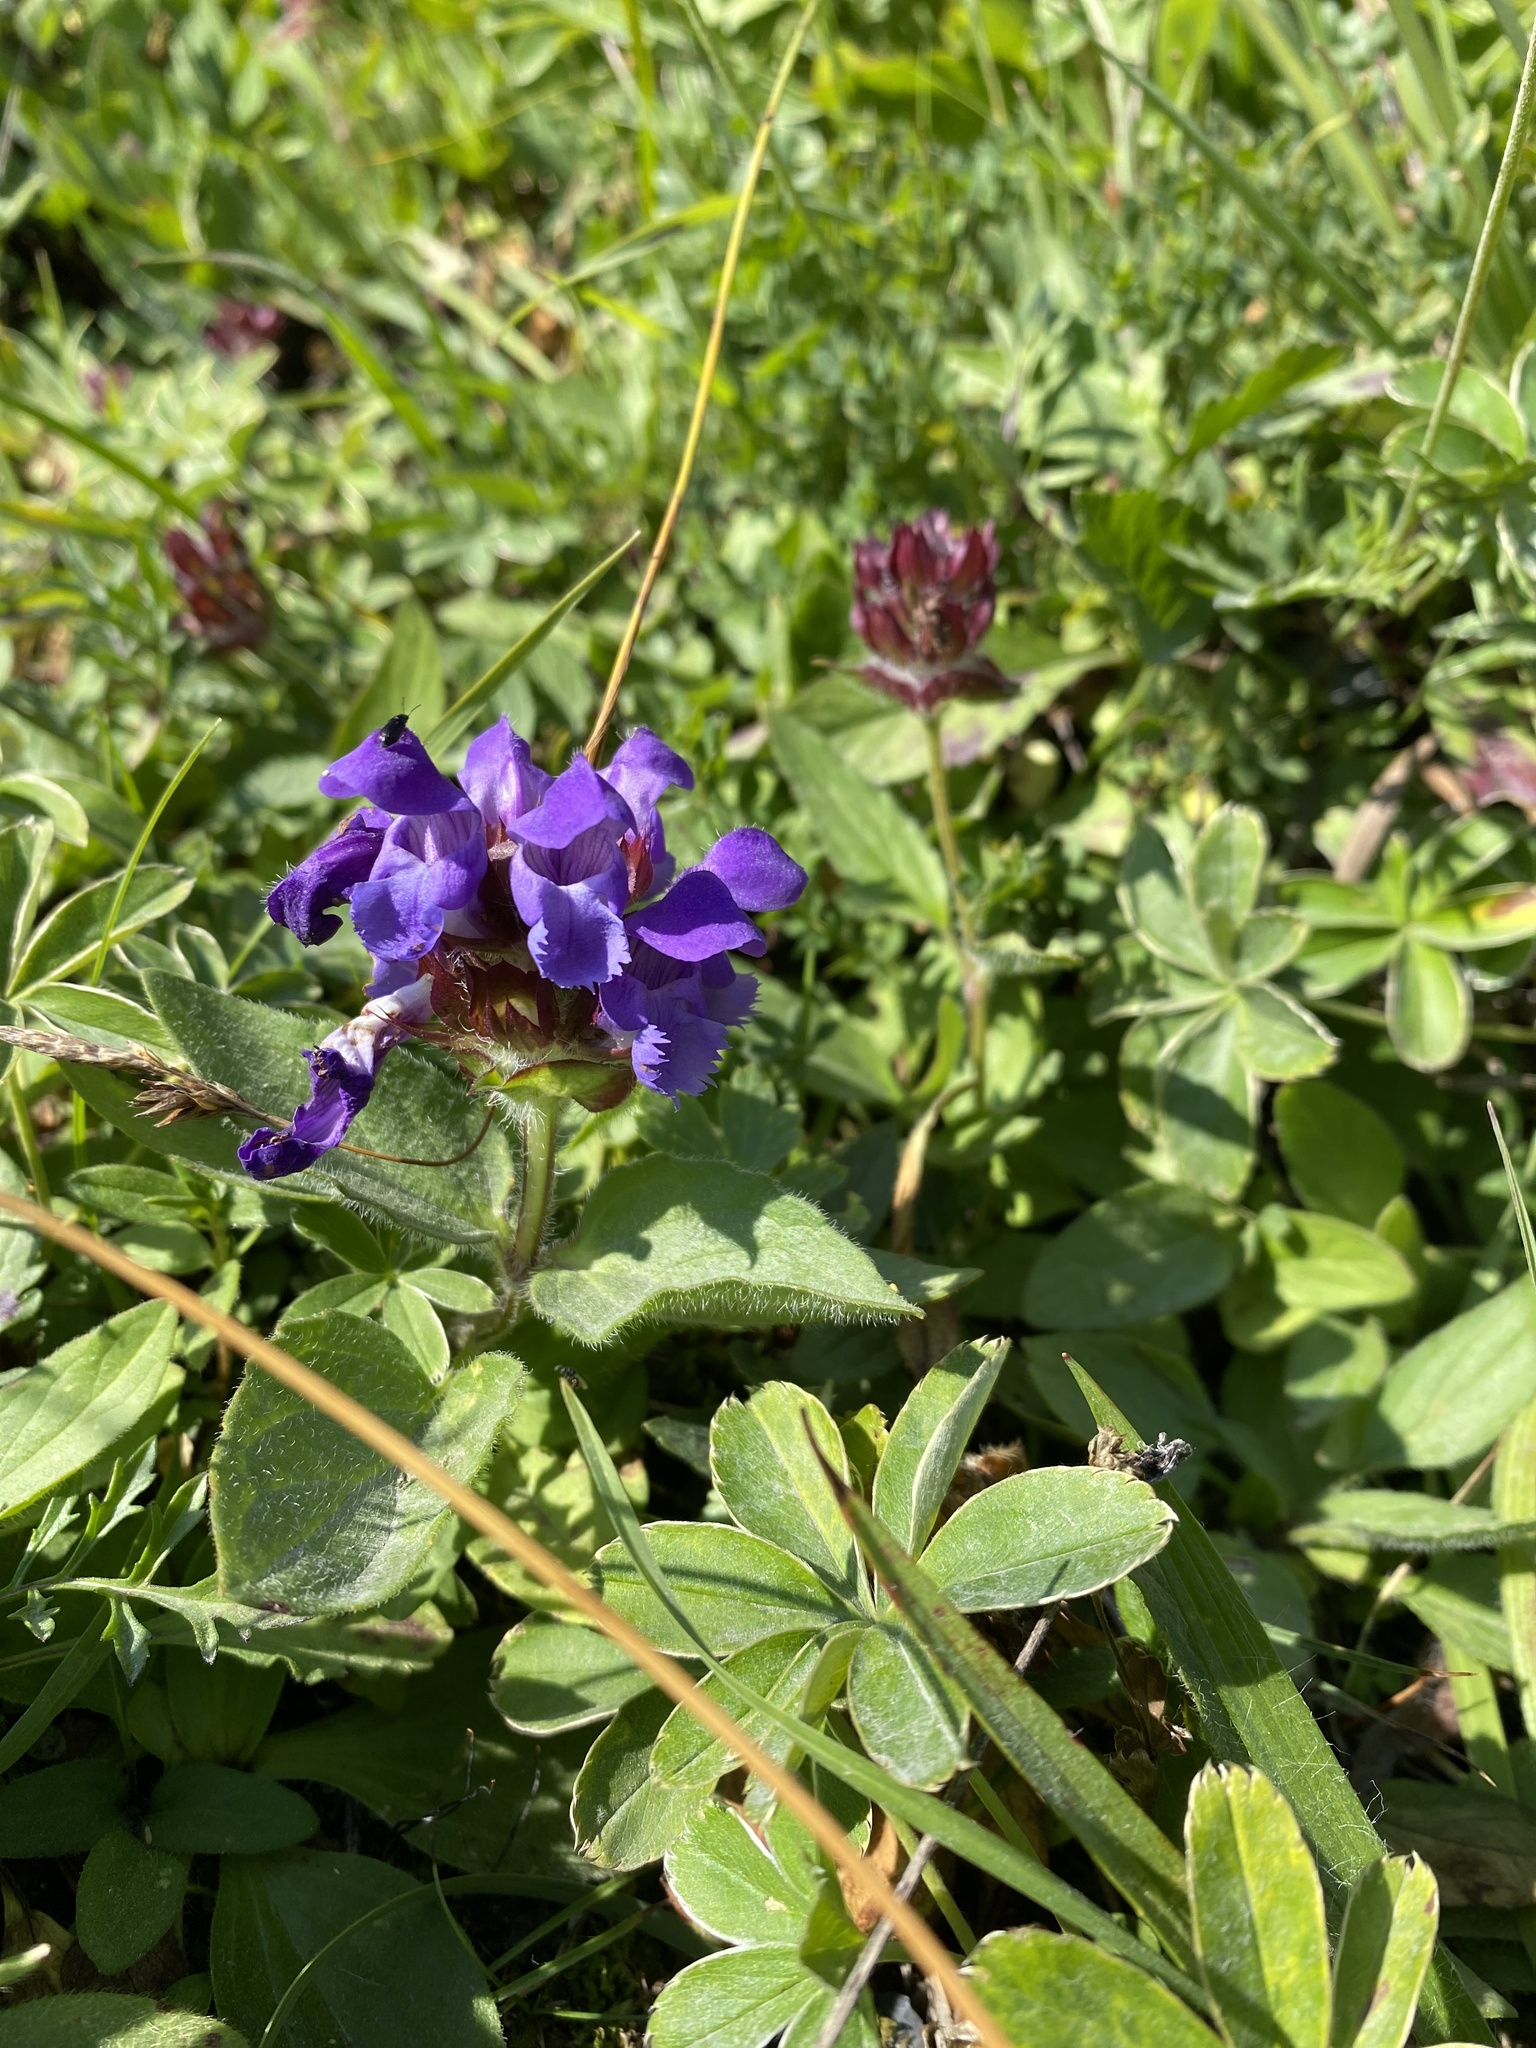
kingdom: Plantae
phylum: Tracheophyta
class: Magnoliopsida
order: Lamiales
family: Lamiaceae
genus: Prunella
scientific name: Prunella grandiflora
